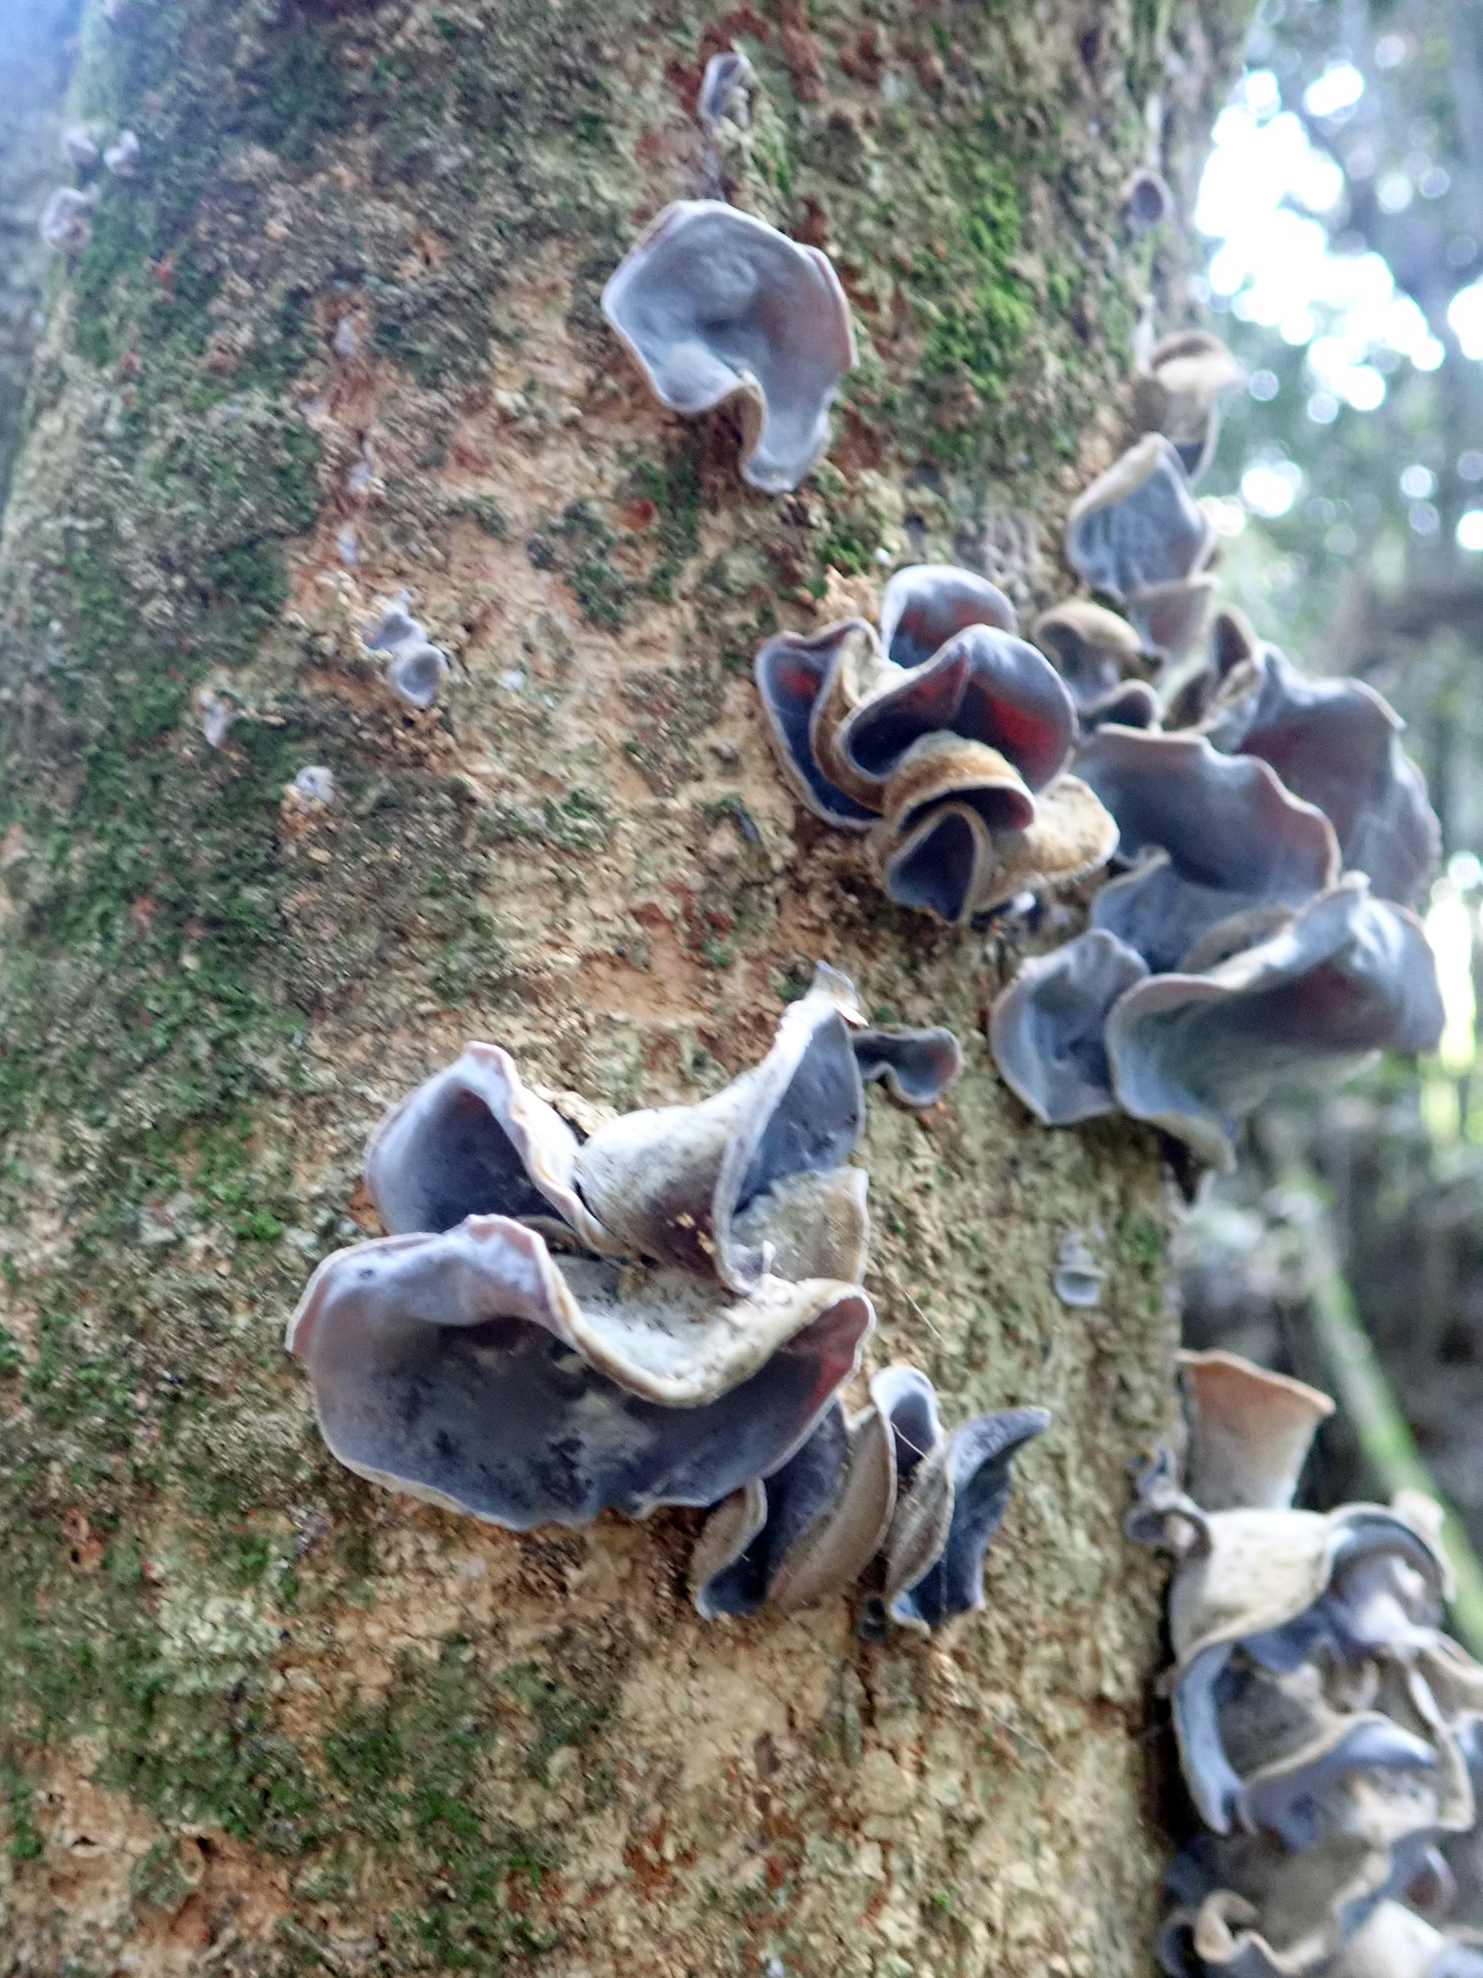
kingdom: Fungi
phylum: Basidiomycota
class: Agaricomycetes
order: Auriculariales
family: Auriculariaceae
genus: Auricularia
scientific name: Auricularia cornea
